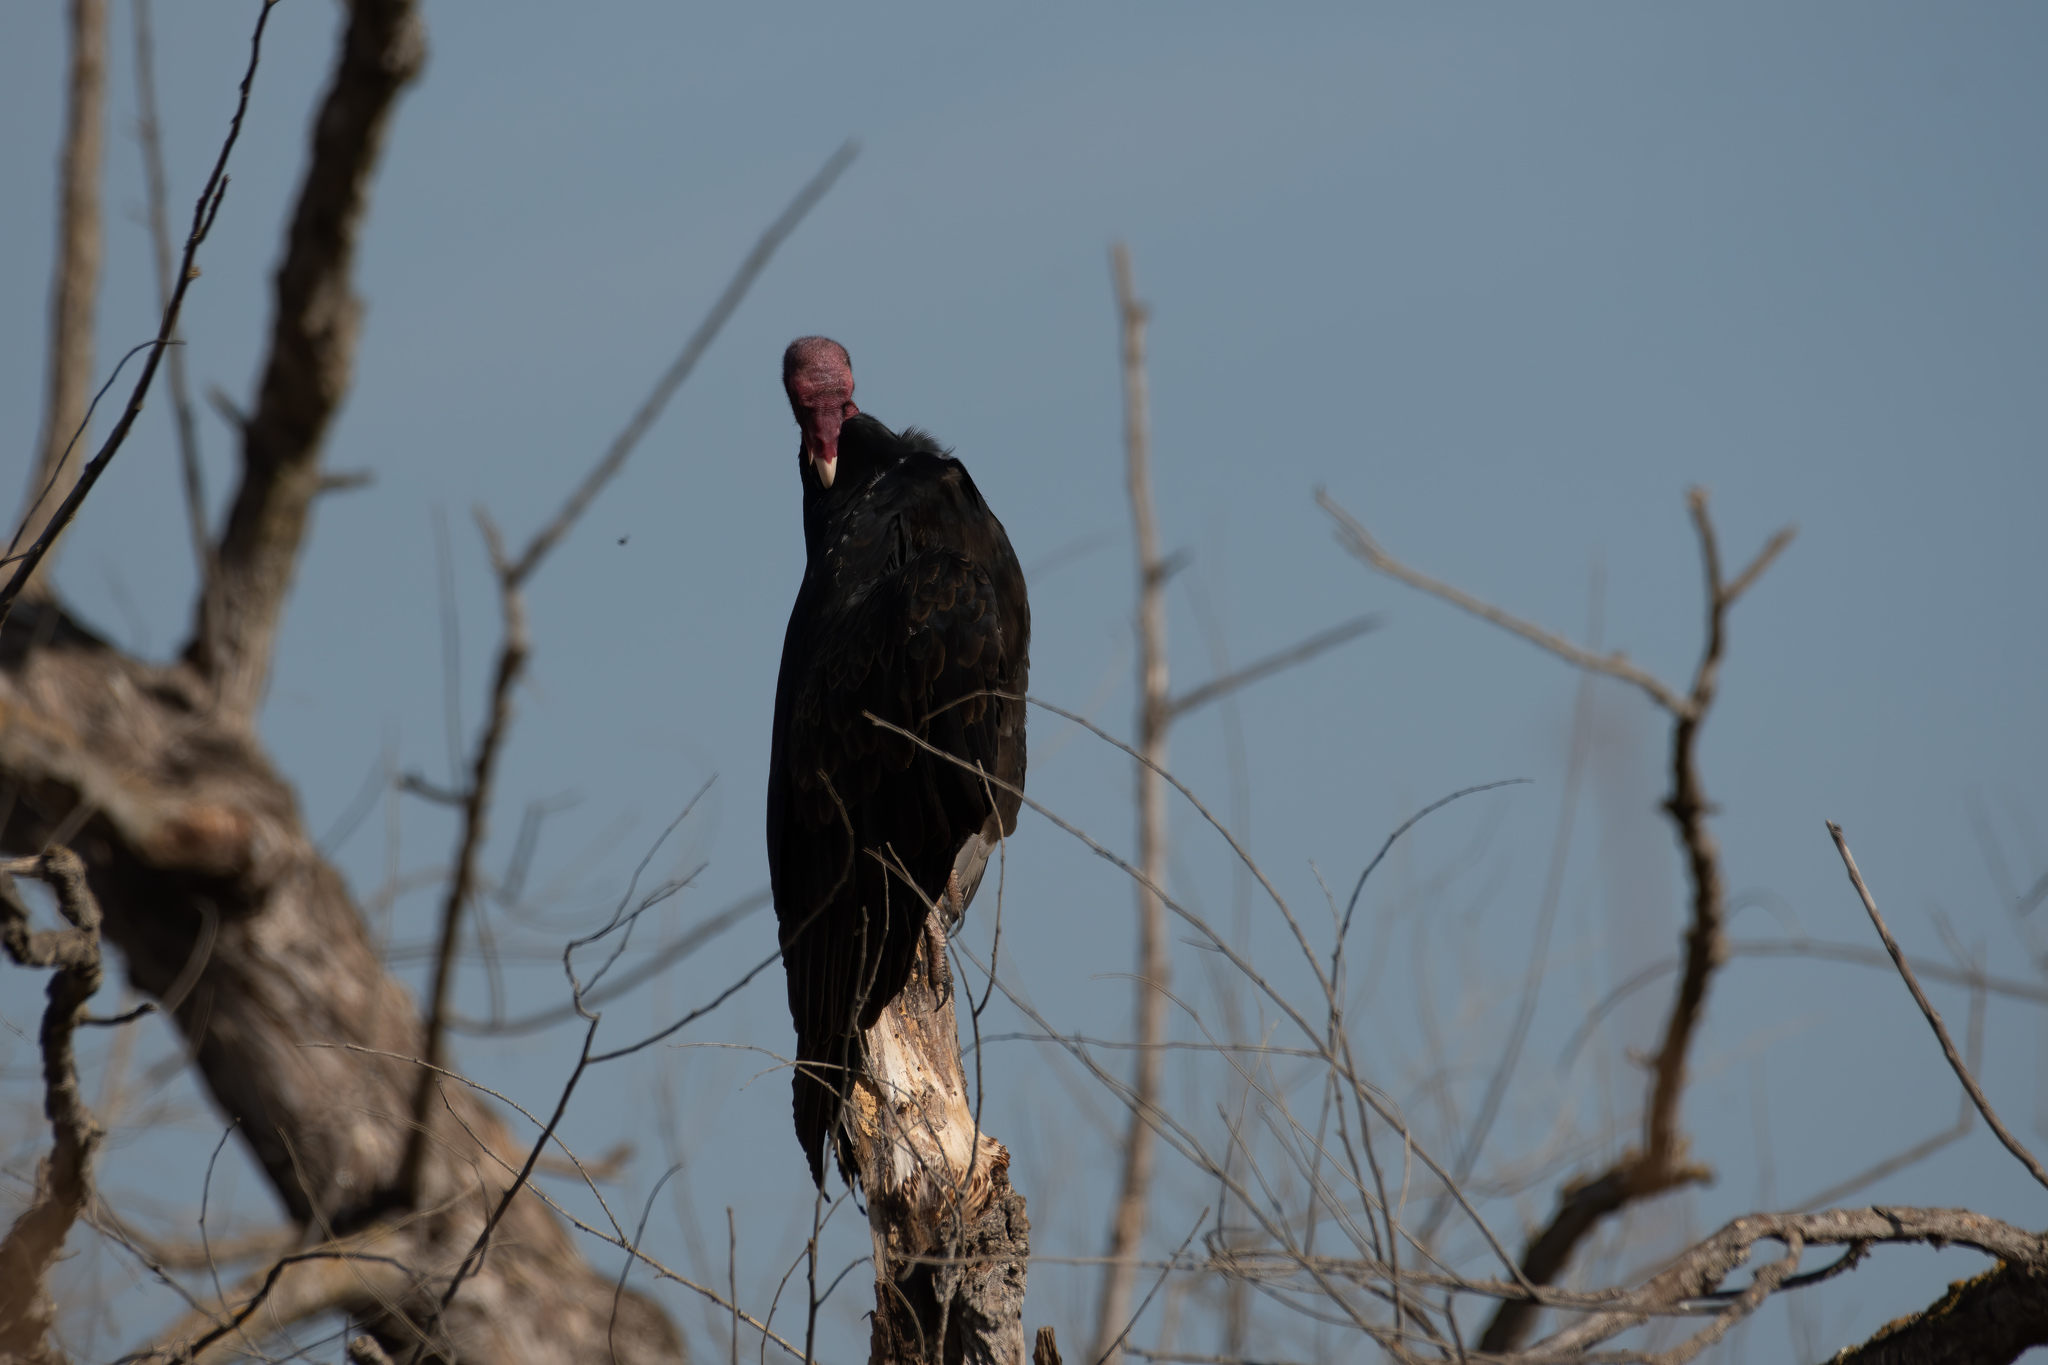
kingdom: Animalia
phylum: Chordata
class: Aves
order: Accipitriformes
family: Cathartidae
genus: Cathartes
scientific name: Cathartes aura
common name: Turkey vulture
